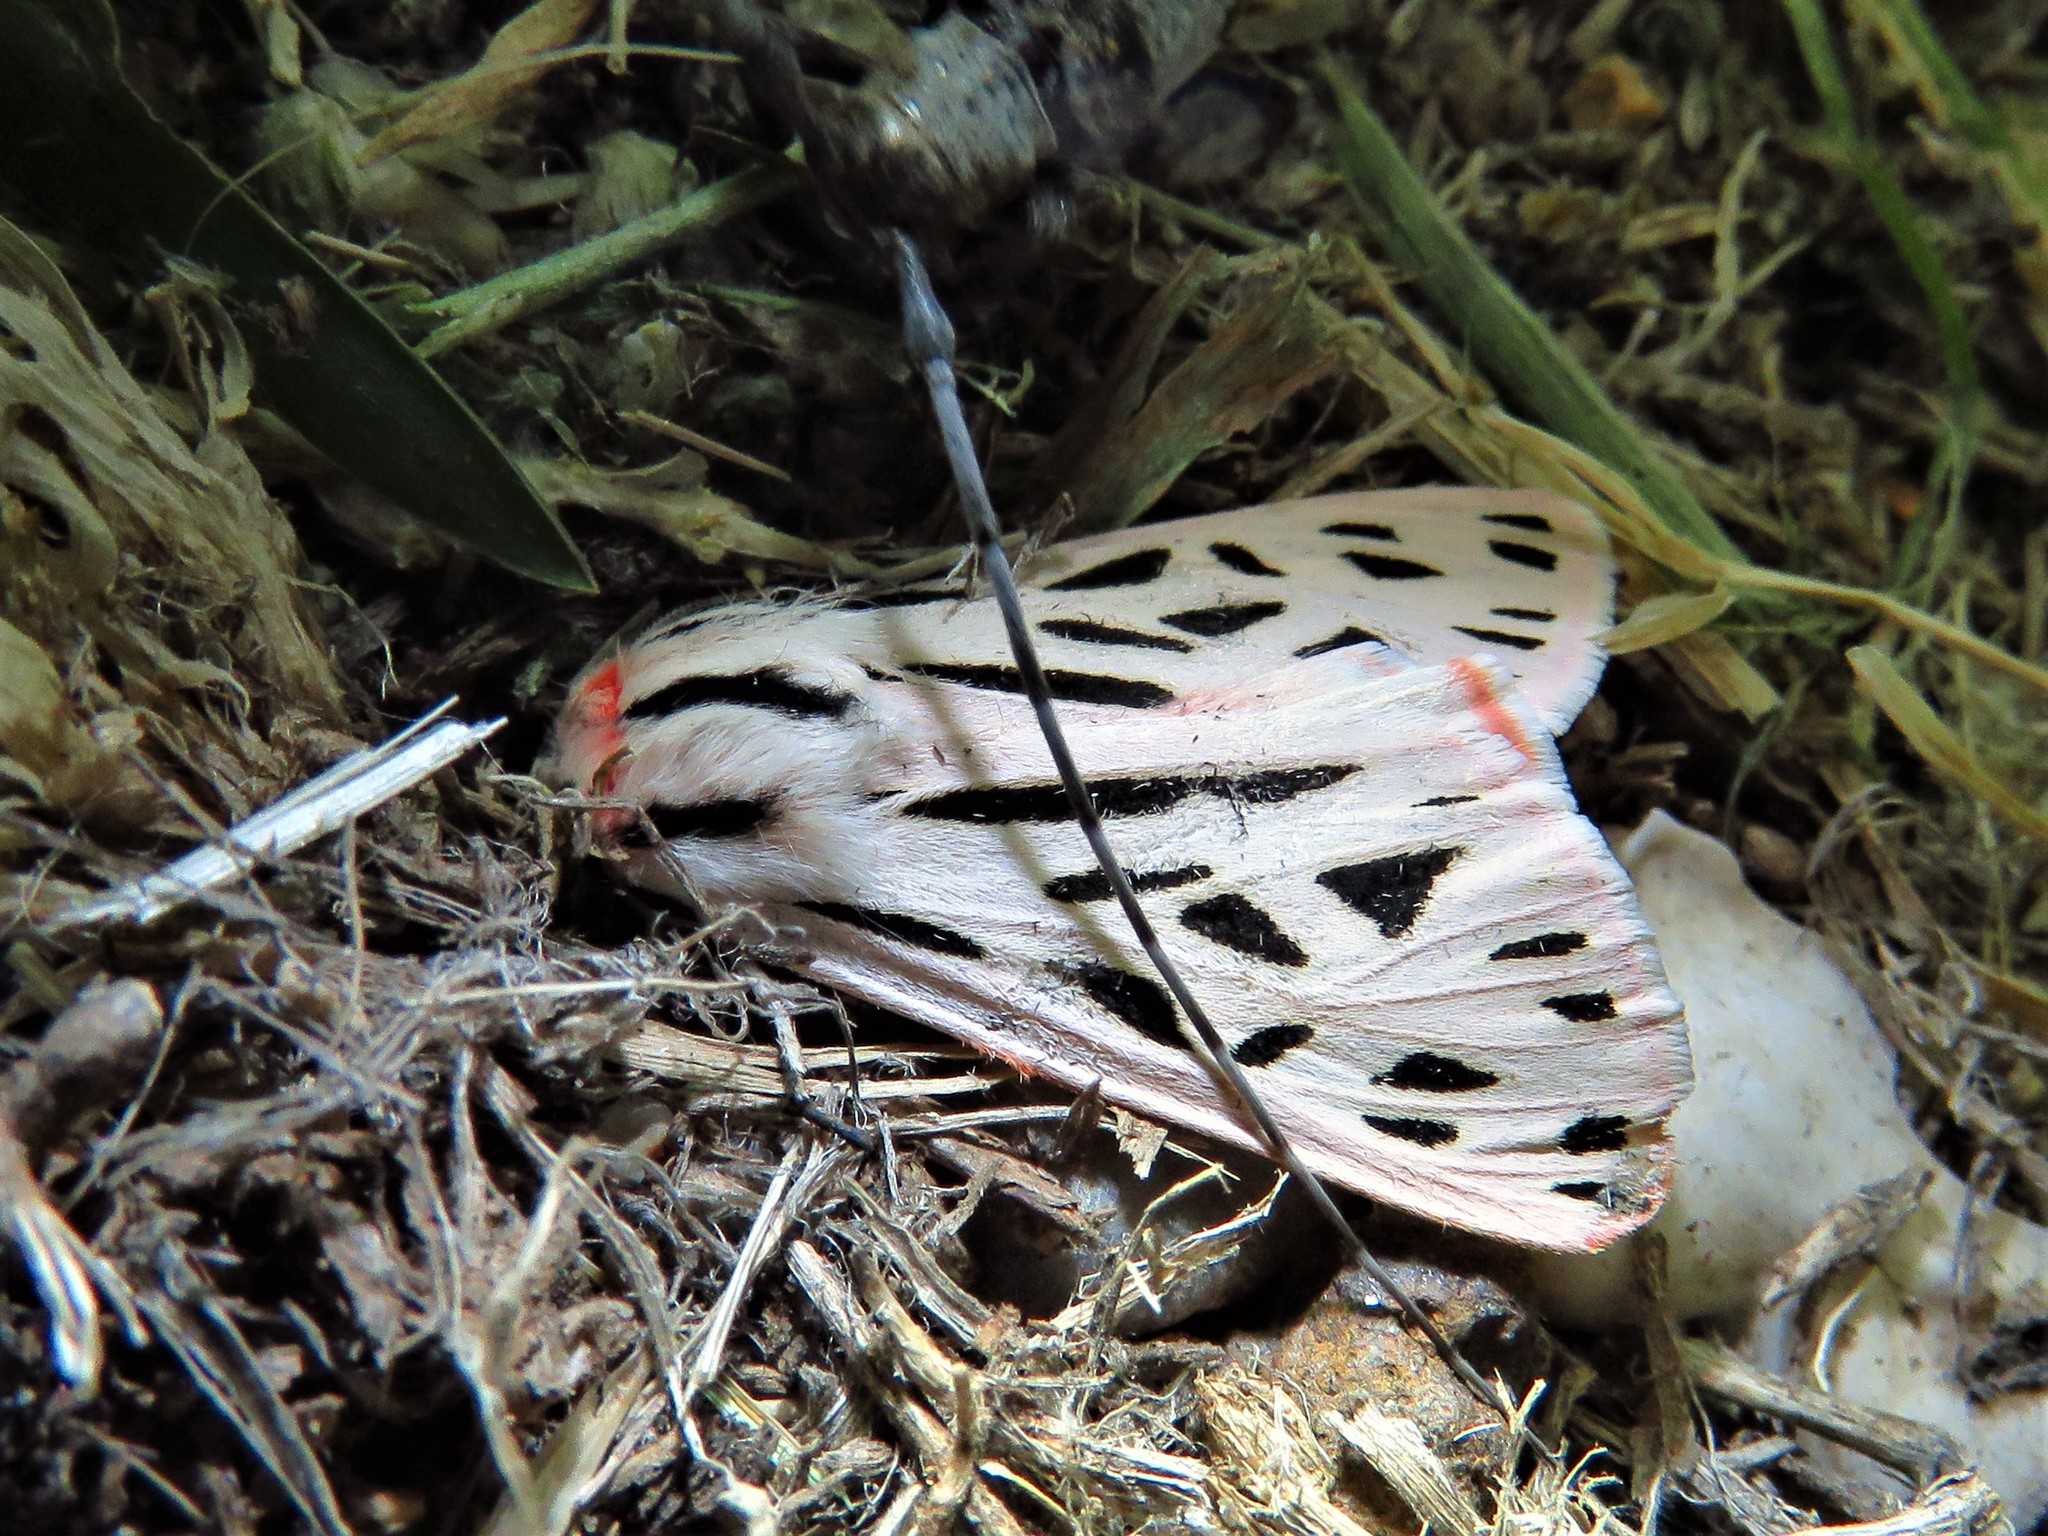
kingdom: Animalia
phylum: Arthropoda
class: Insecta
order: Lepidoptera
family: Erebidae
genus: Apantesis
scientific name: Apantesis arge
